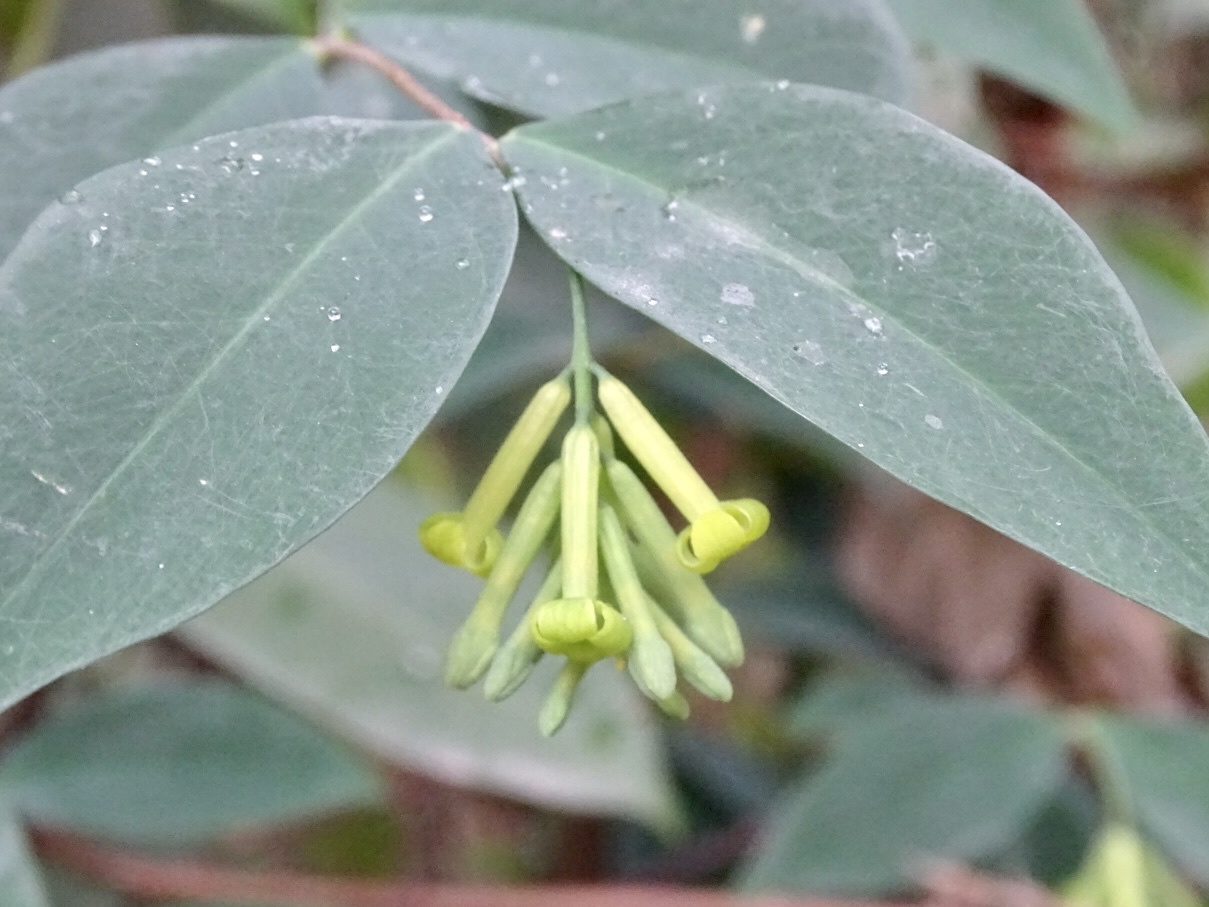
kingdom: Plantae
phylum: Tracheophyta
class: Magnoliopsida
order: Malvales
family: Thymelaeaceae
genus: Wikstroemia
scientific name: Wikstroemia nutans
